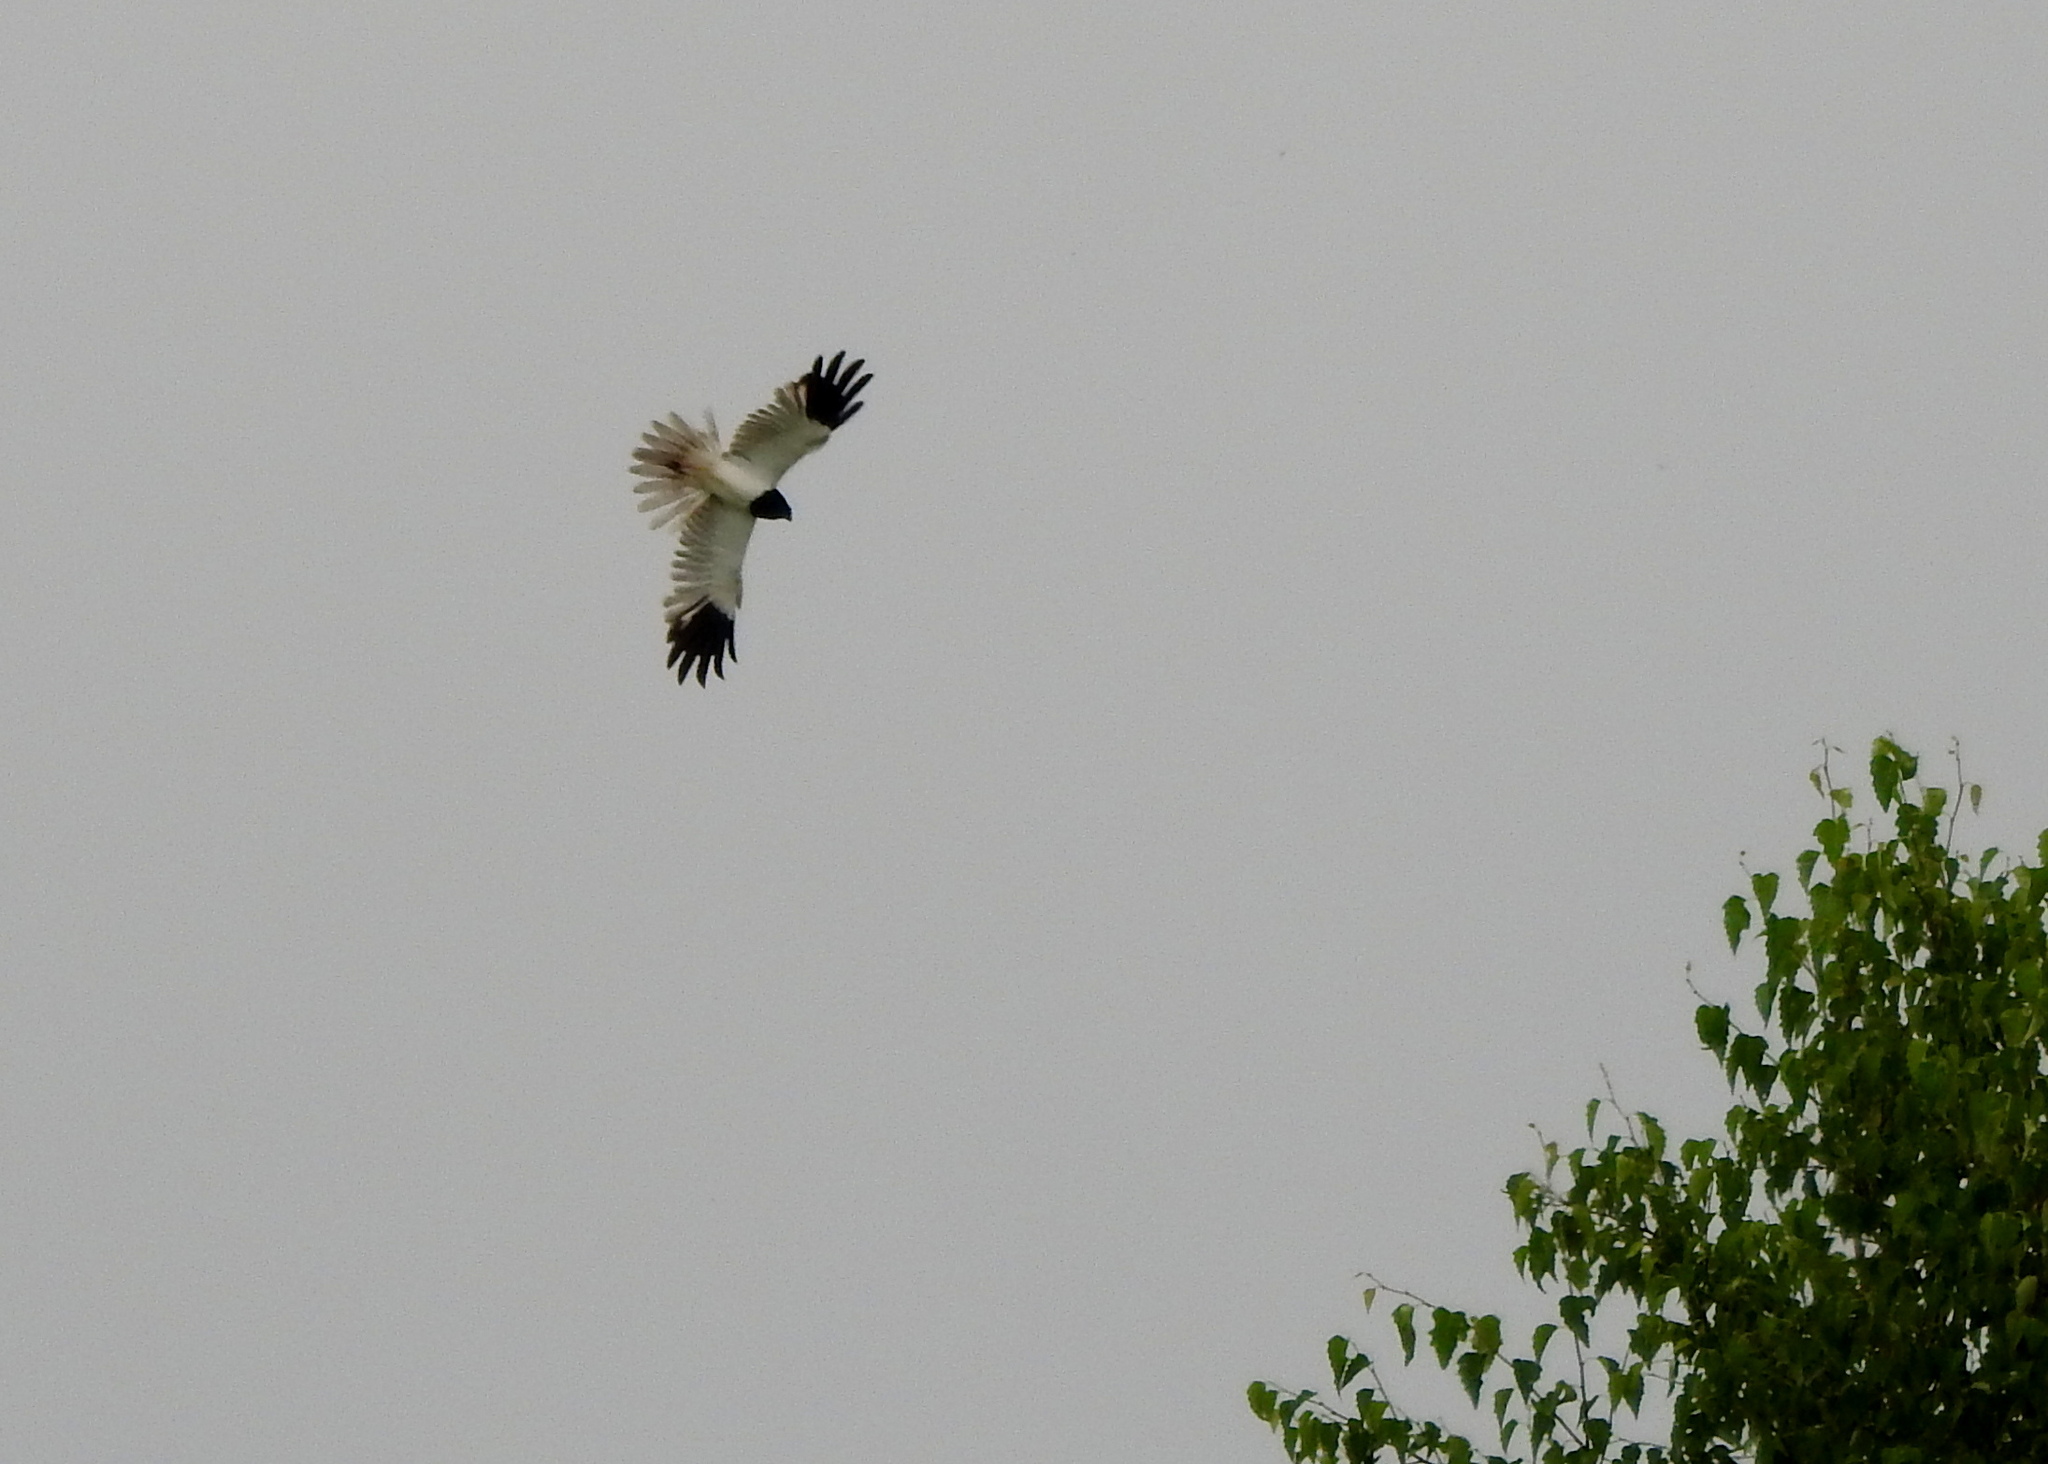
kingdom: Animalia
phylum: Chordata
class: Aves
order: Accipitriformes
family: Accipitridae
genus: Circus
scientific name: Circus melanoleucos
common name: Pied harrier
